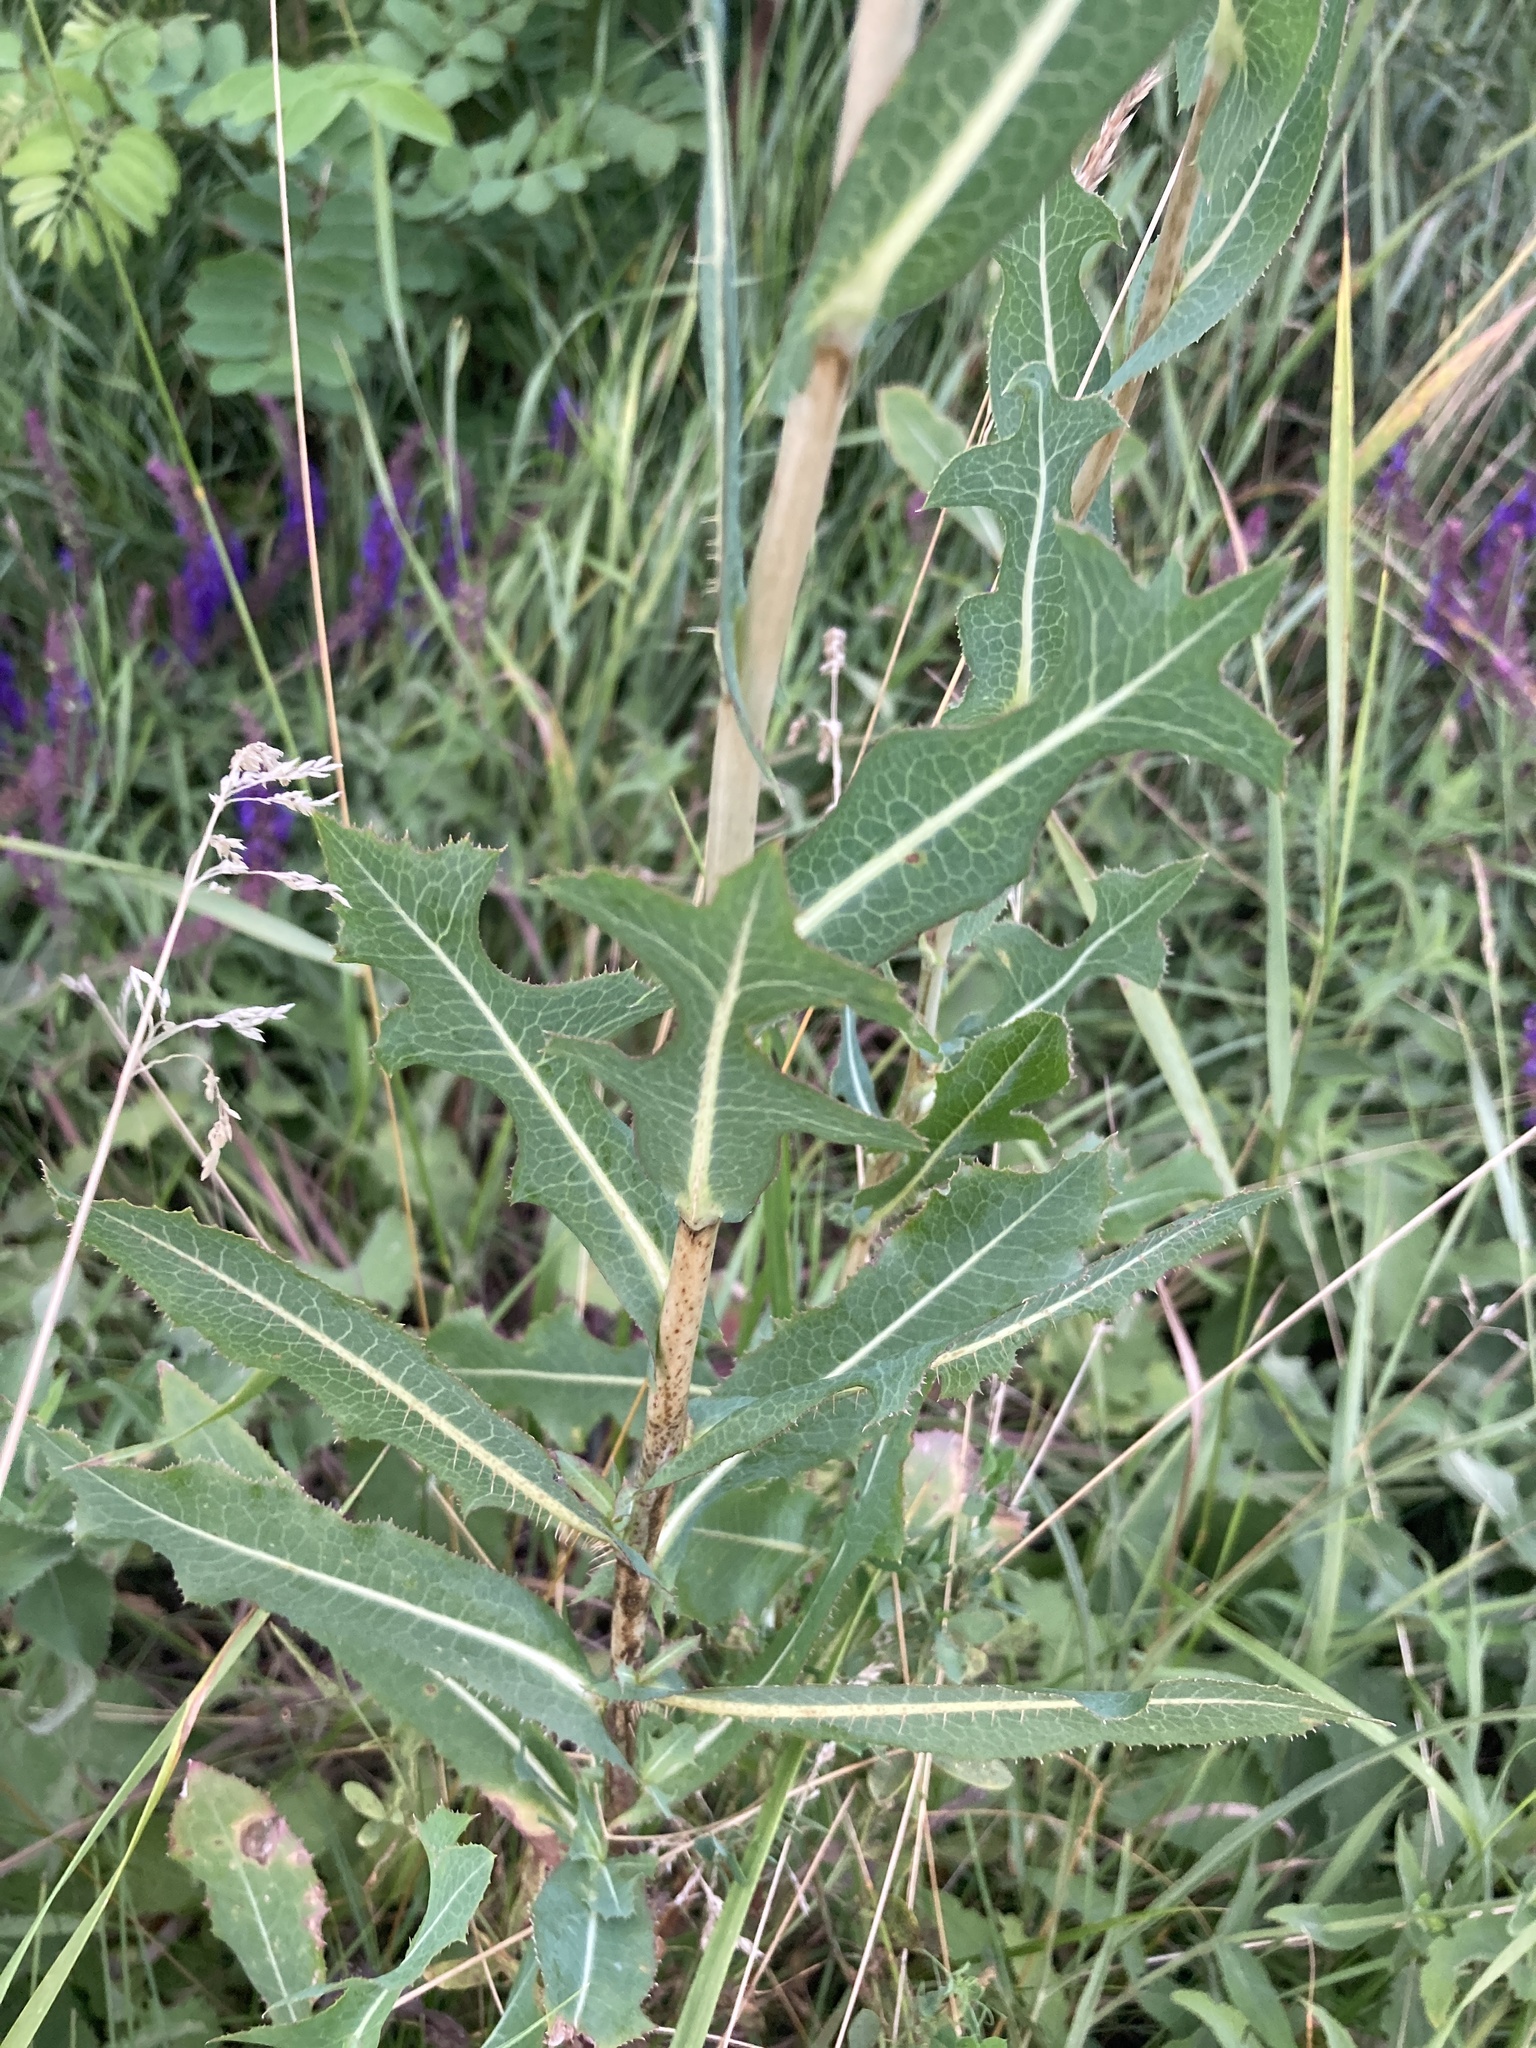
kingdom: Plantae
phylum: Tracheophyta
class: Magnoliopsida
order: Asterales
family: Asteraceae
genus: Lactuca
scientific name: Lactuca serriola
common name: Prickly lettuce
